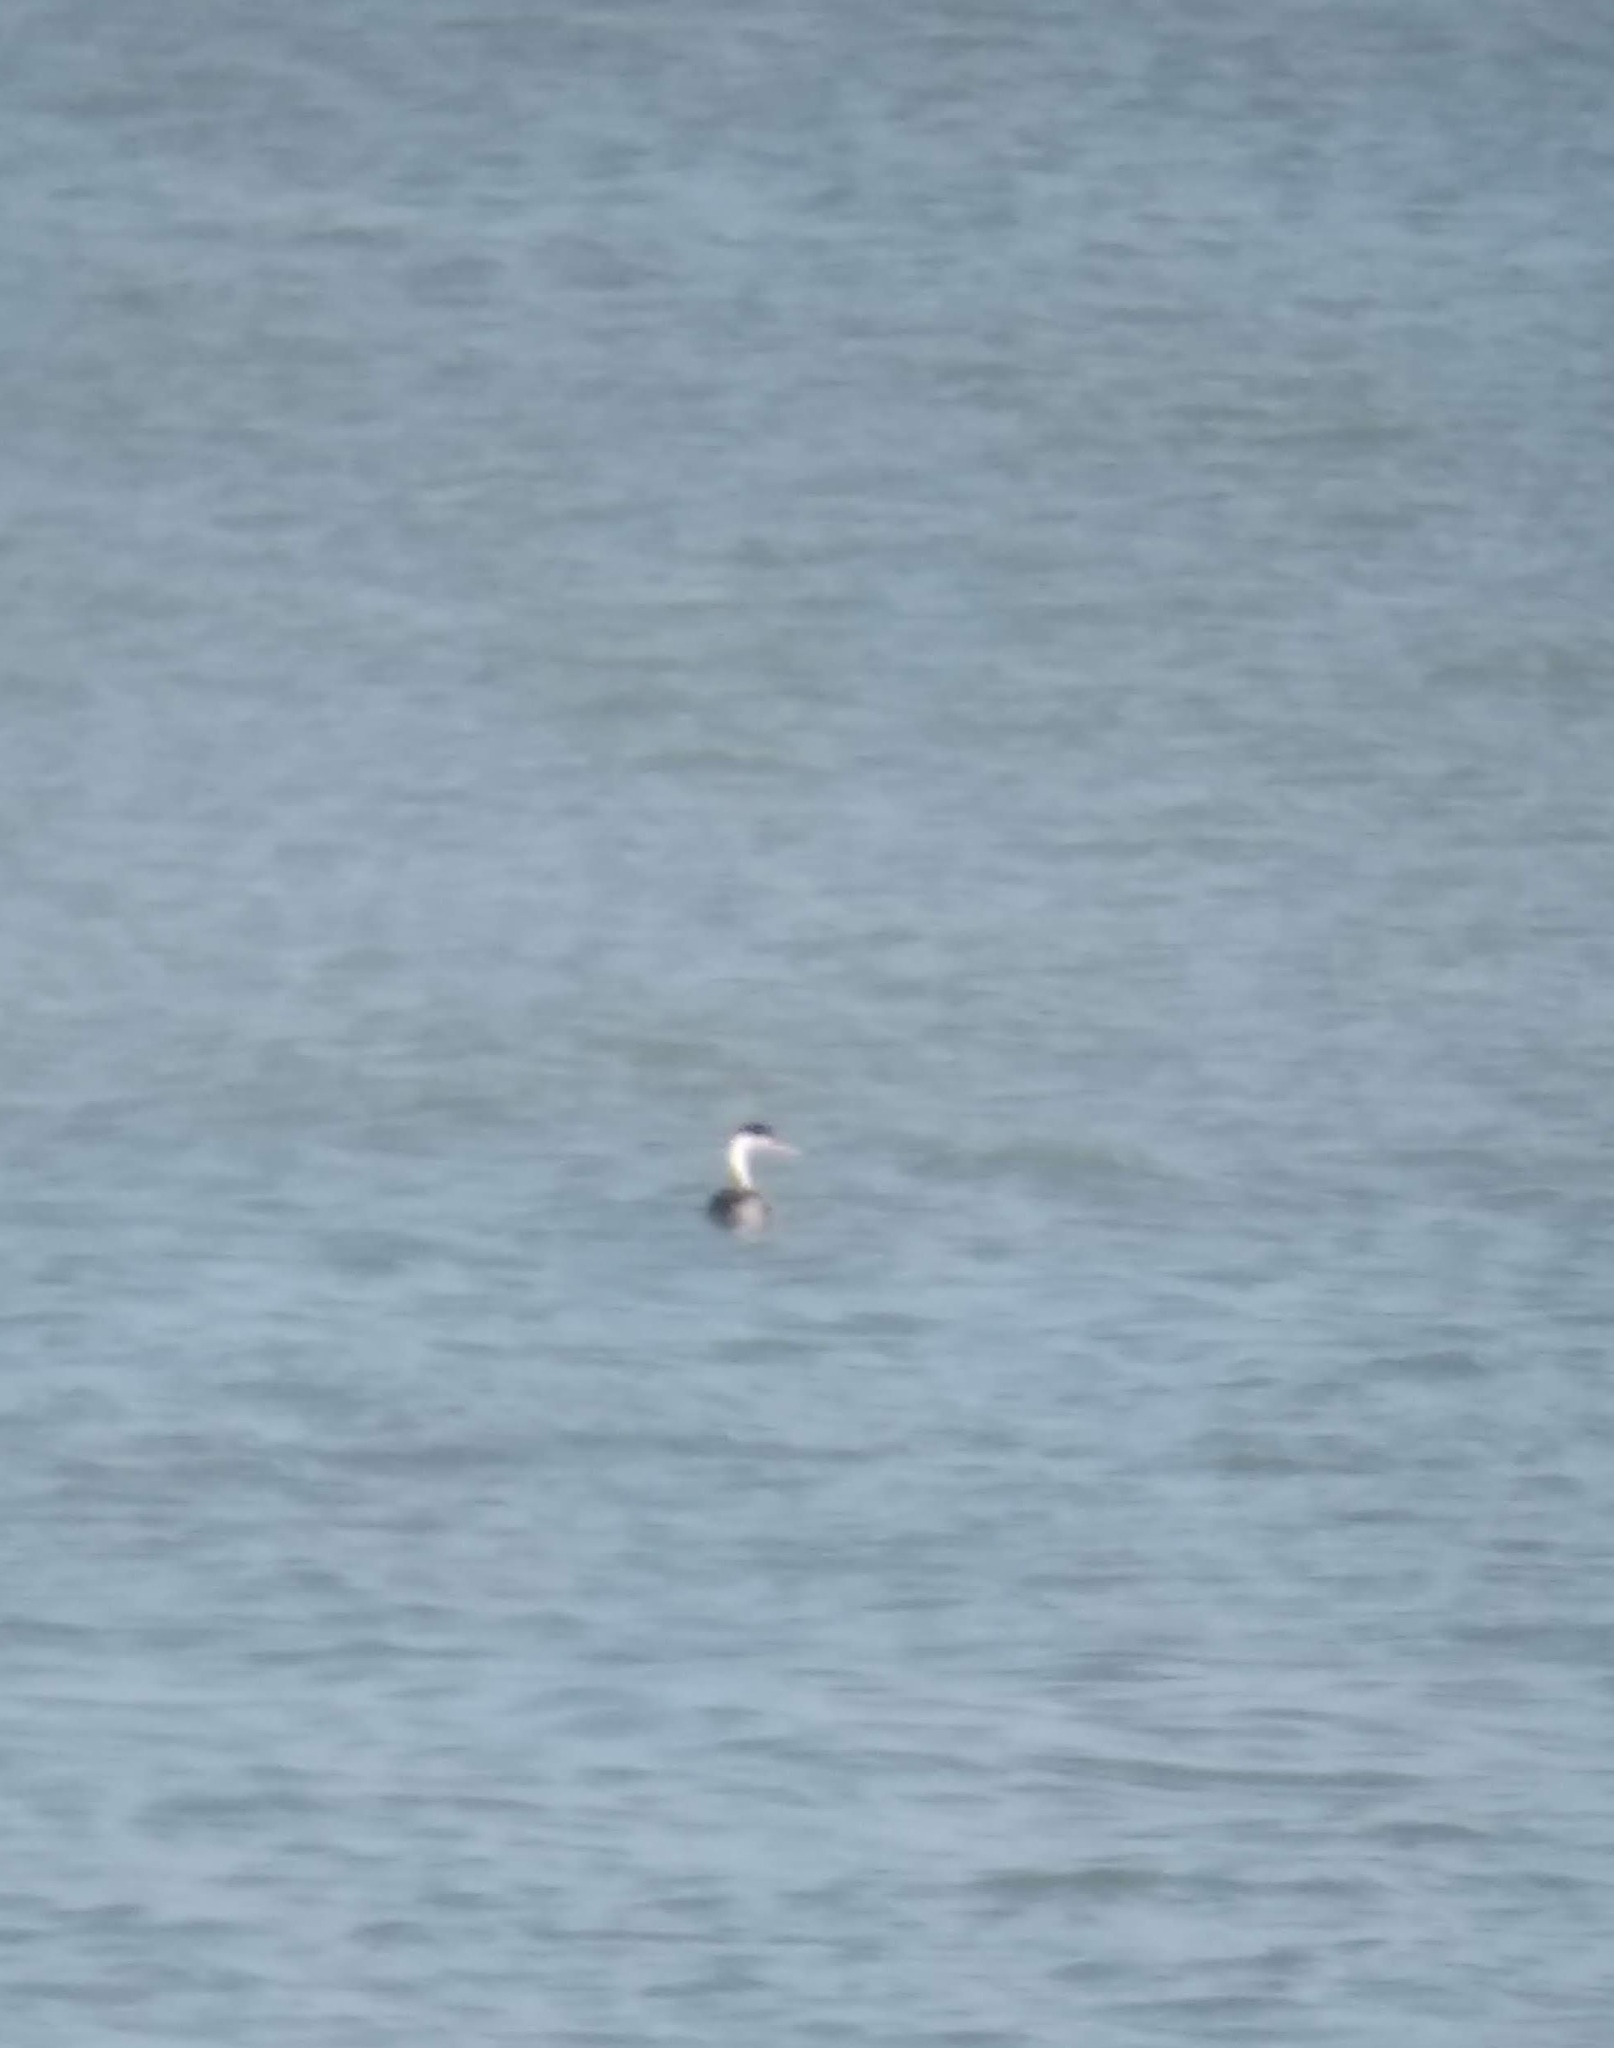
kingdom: Animalia
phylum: Chordata
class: Aves
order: Podicipediformes
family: Podicipedidae
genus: Aechmophorus
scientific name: Aechmophorus clarkii
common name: Clark's grebe
